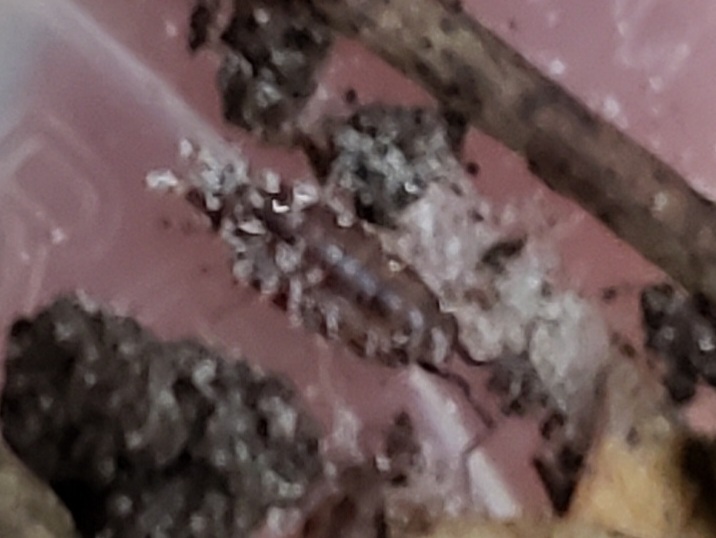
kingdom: Animalia
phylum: Arthropoda
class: Malacostraca
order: Isopoda
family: Philosciidae
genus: Atlantoscia
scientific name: Atlantoscia floridana
